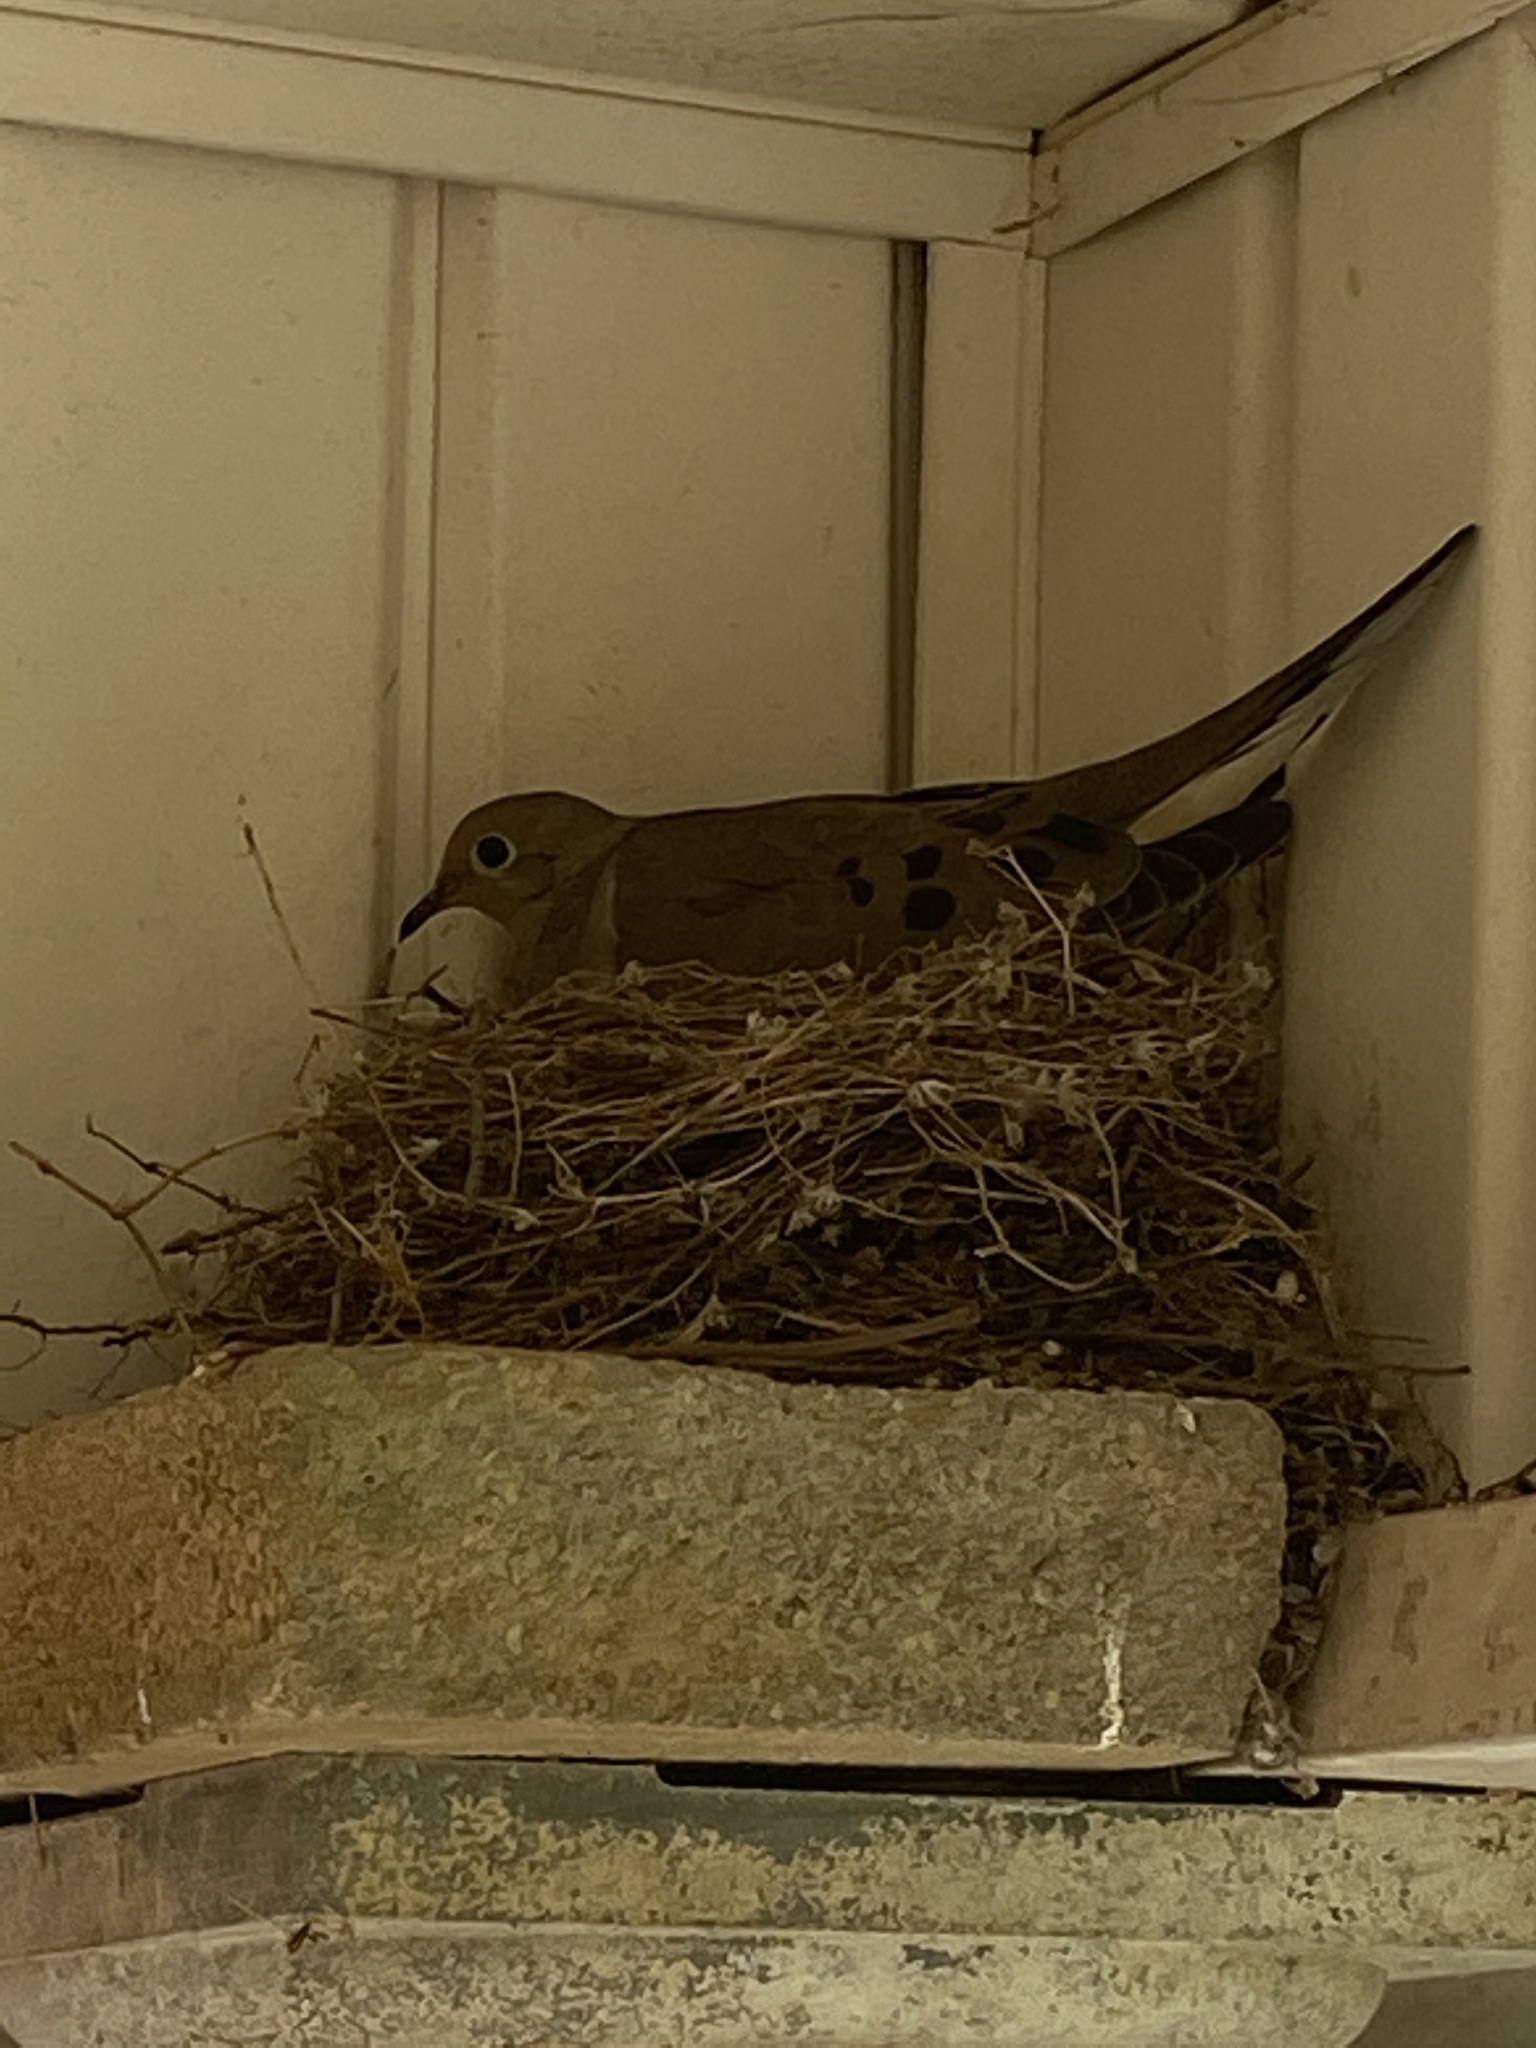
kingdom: Animalia
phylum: Chordata
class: Aves
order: Columbiformes
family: Columbidae
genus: Zenaida
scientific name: Zenaida macroura
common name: Mourning dove
